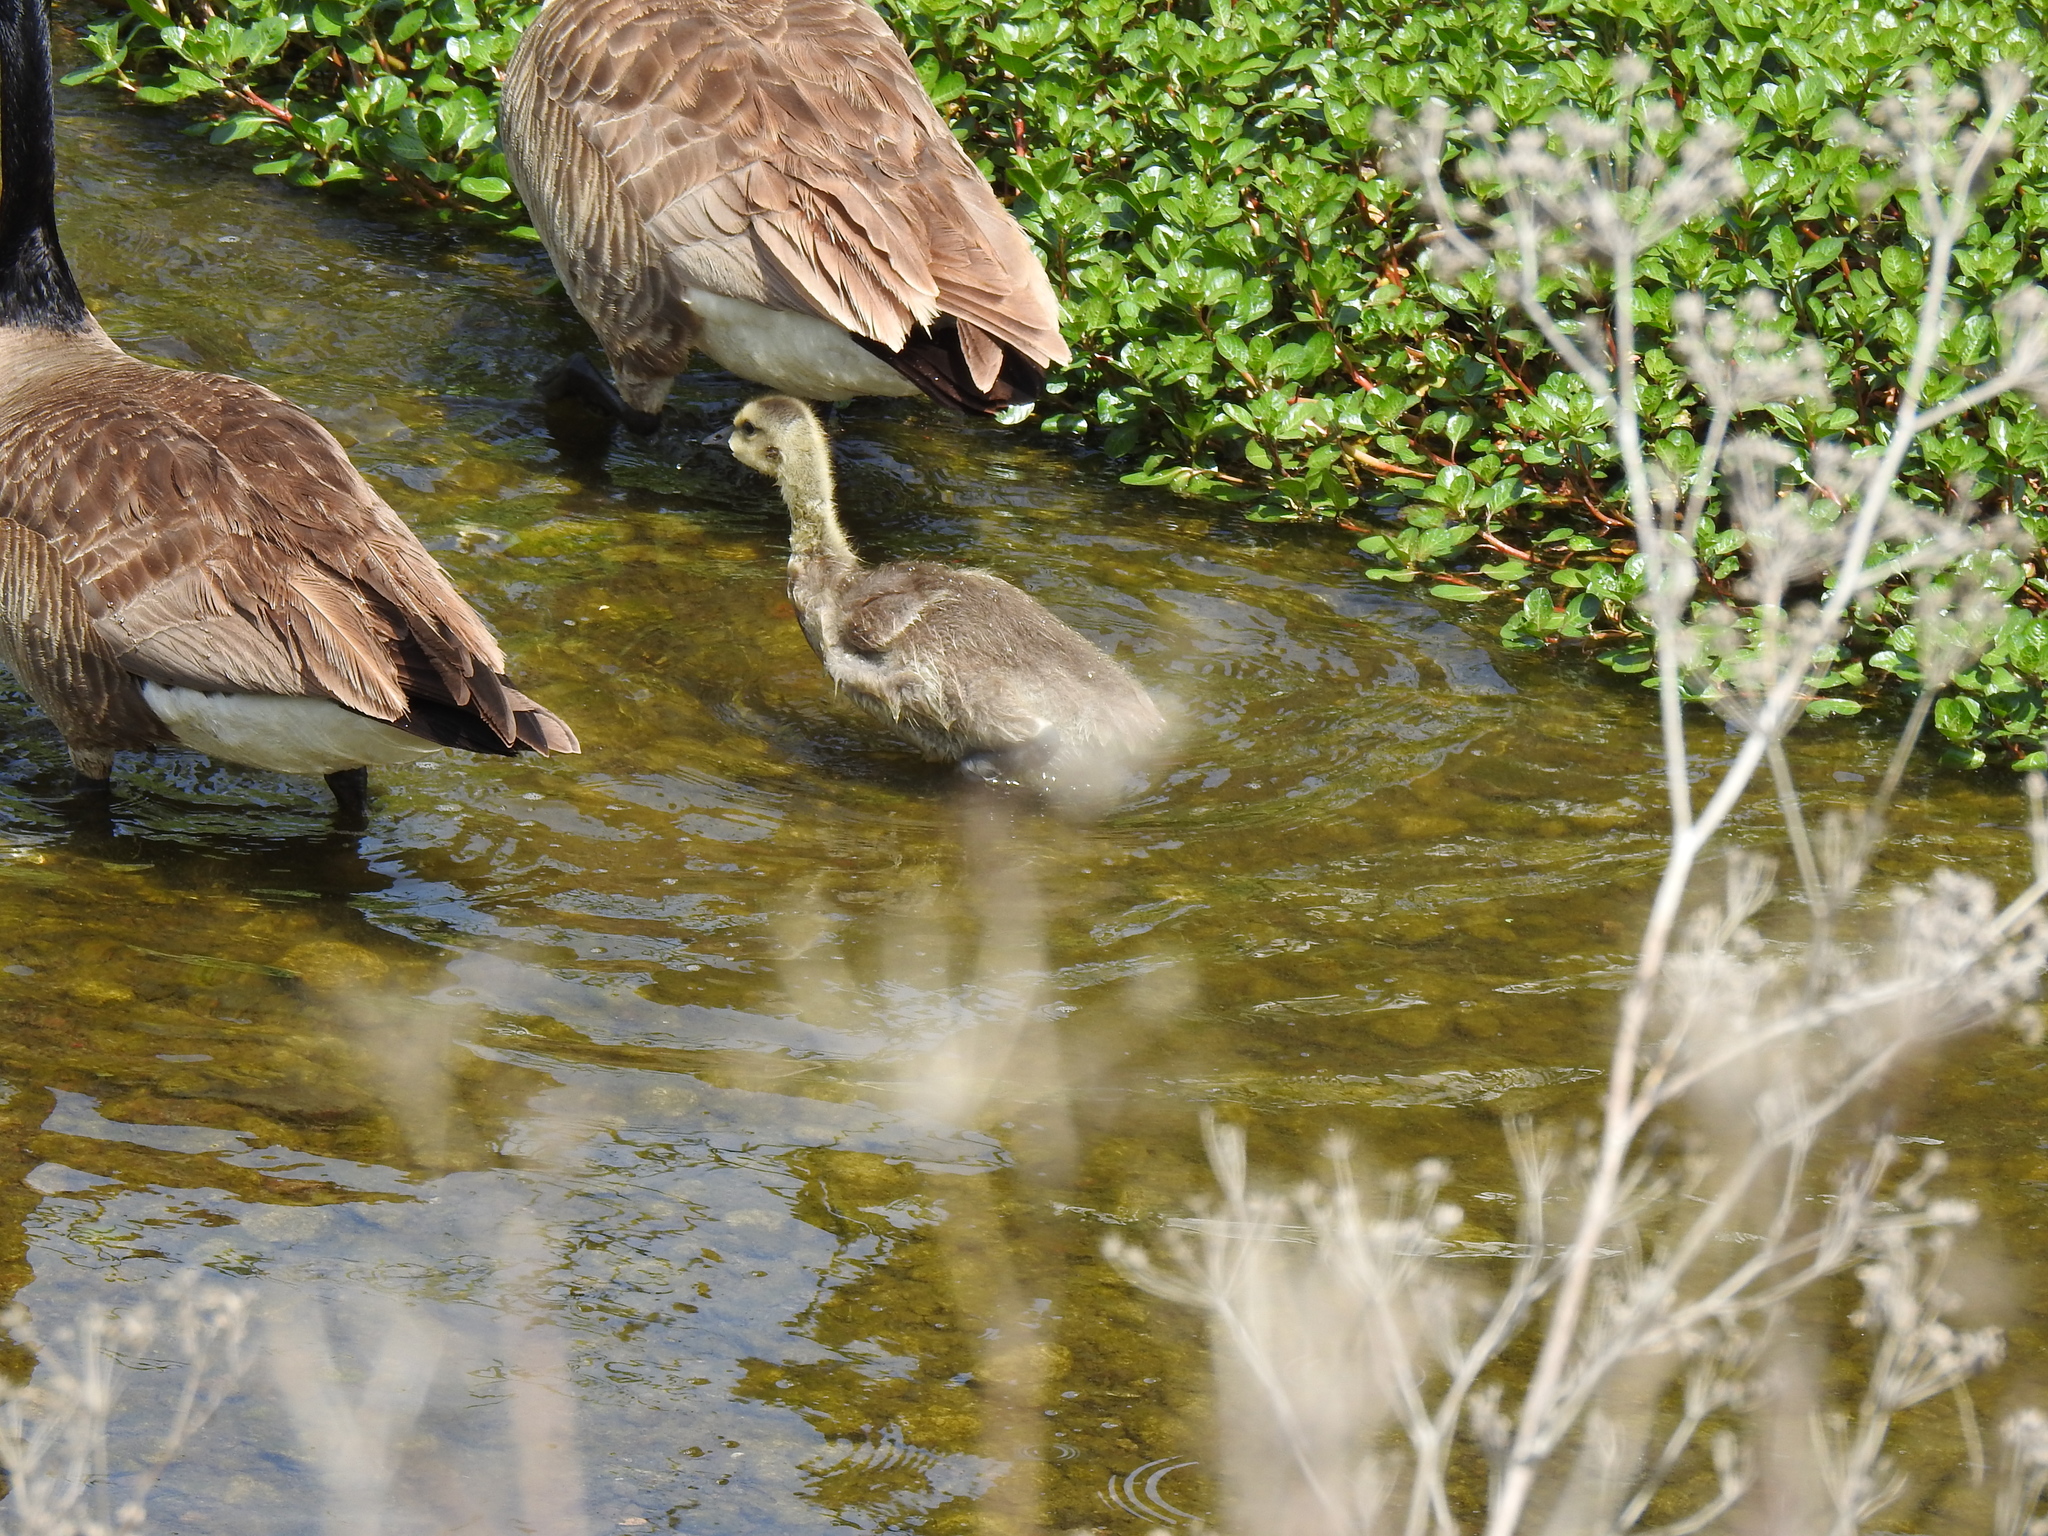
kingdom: Animalia
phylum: Chordata
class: Aves
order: Anseriformes
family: Anatidae
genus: Branta
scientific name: Branta canadensis
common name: Canada goose
